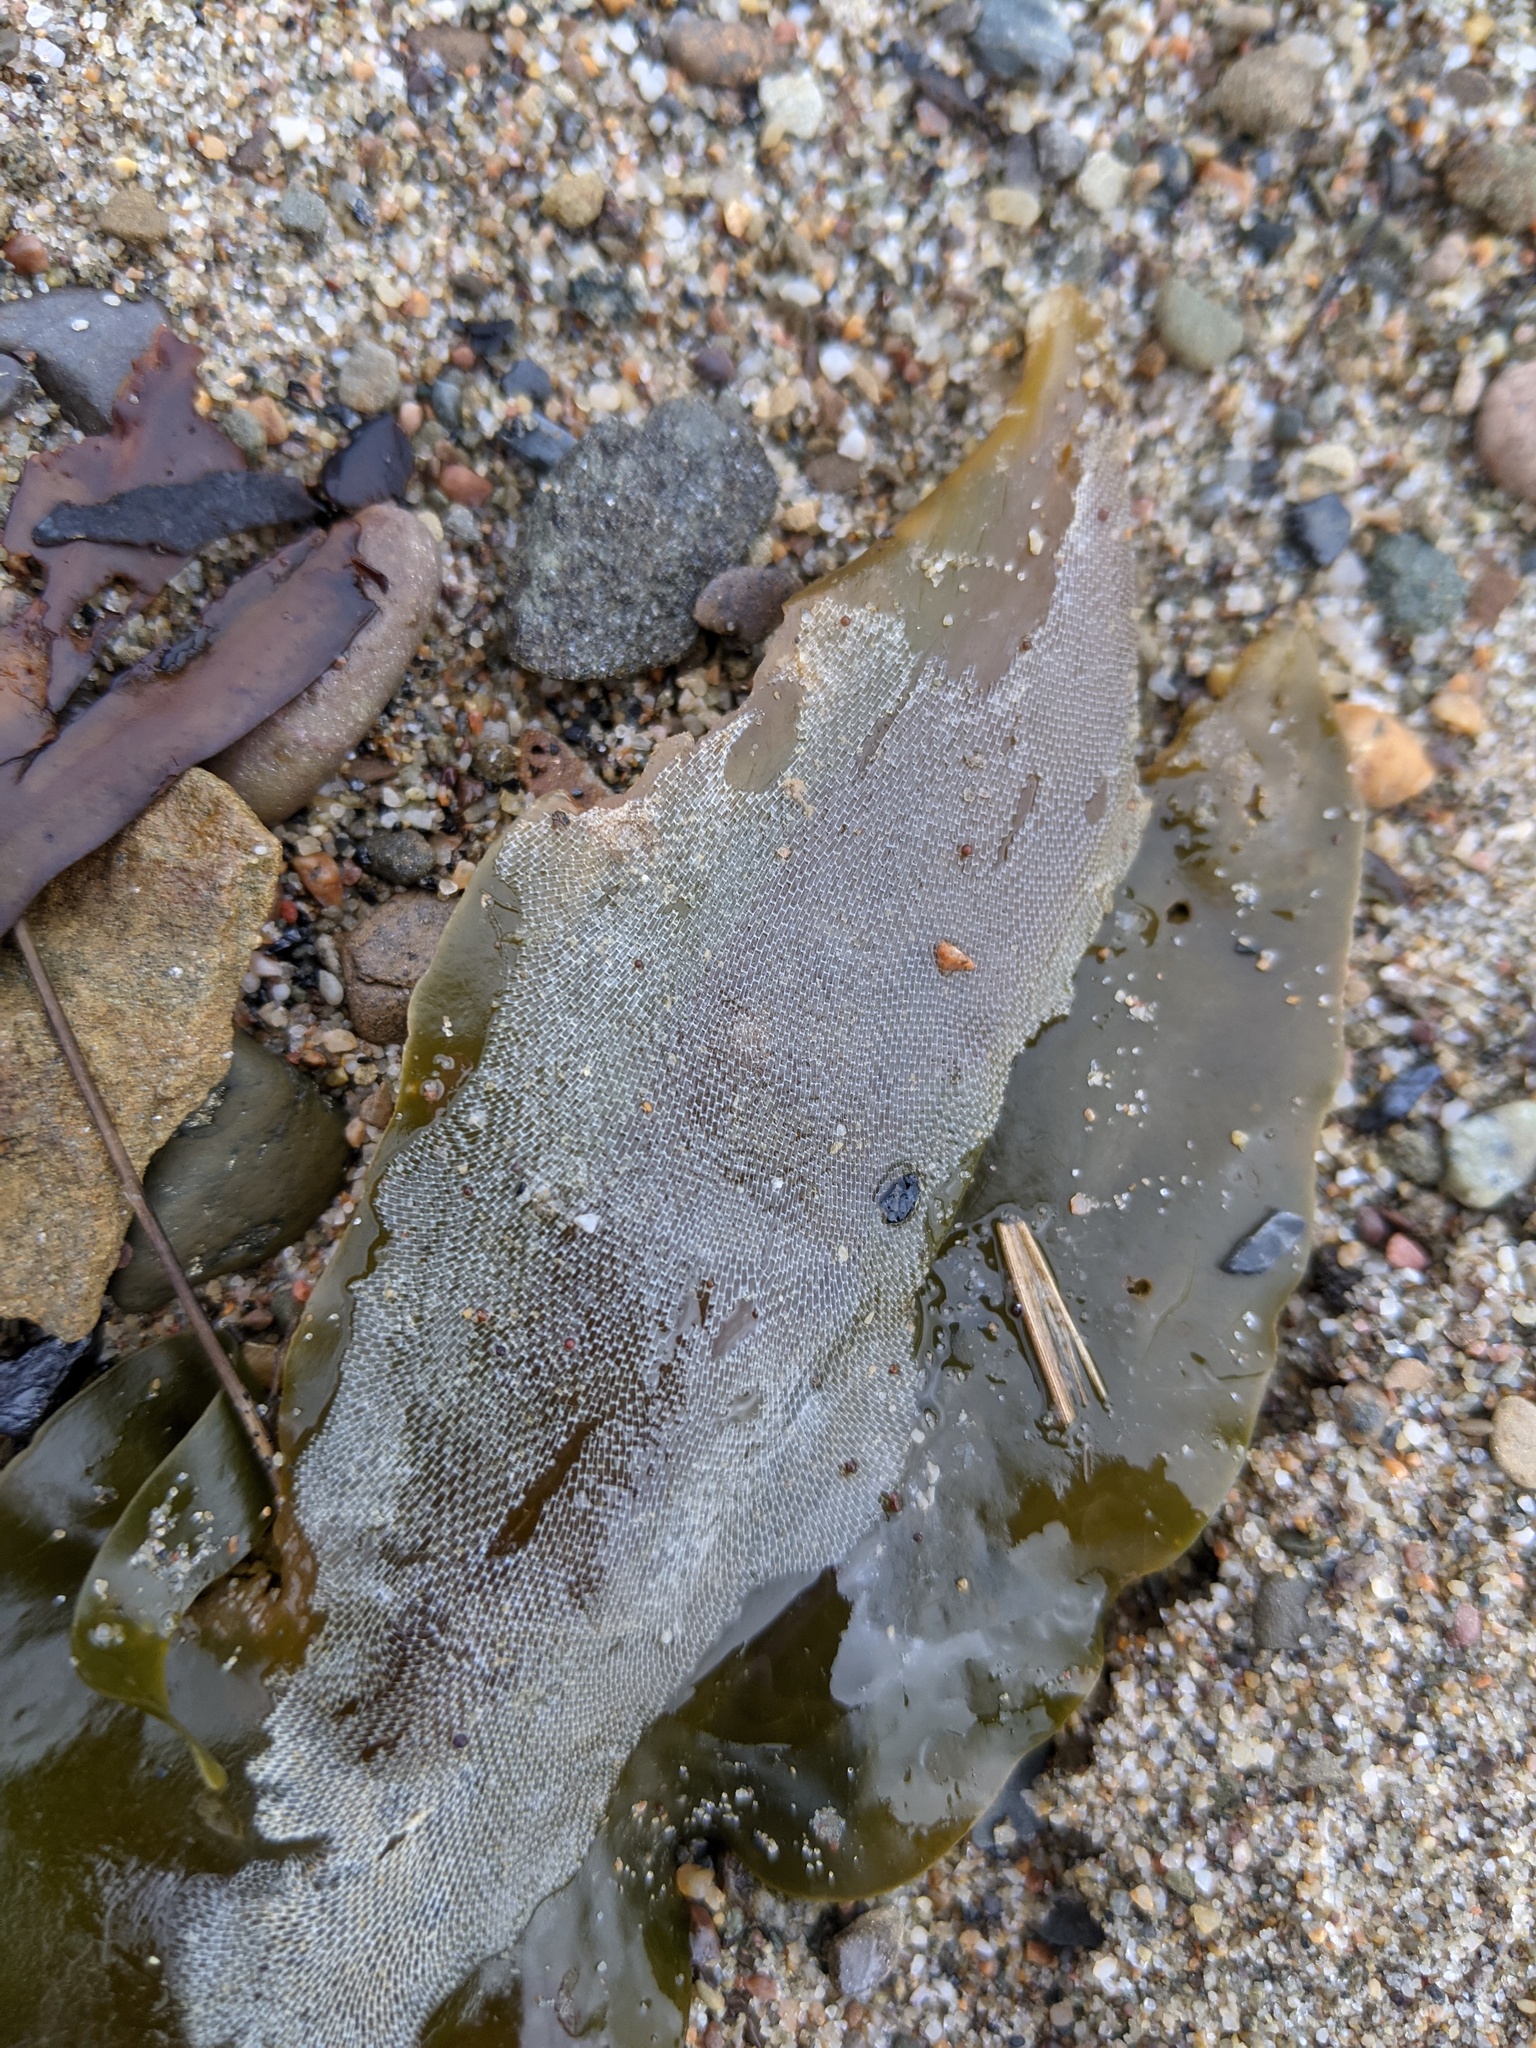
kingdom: Animalia
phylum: Bryozoa
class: Gymnolaemata
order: Cheilostomatida
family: Membraniporidae
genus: Membranipora
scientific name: Membranipora membranacea
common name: Sea mat
